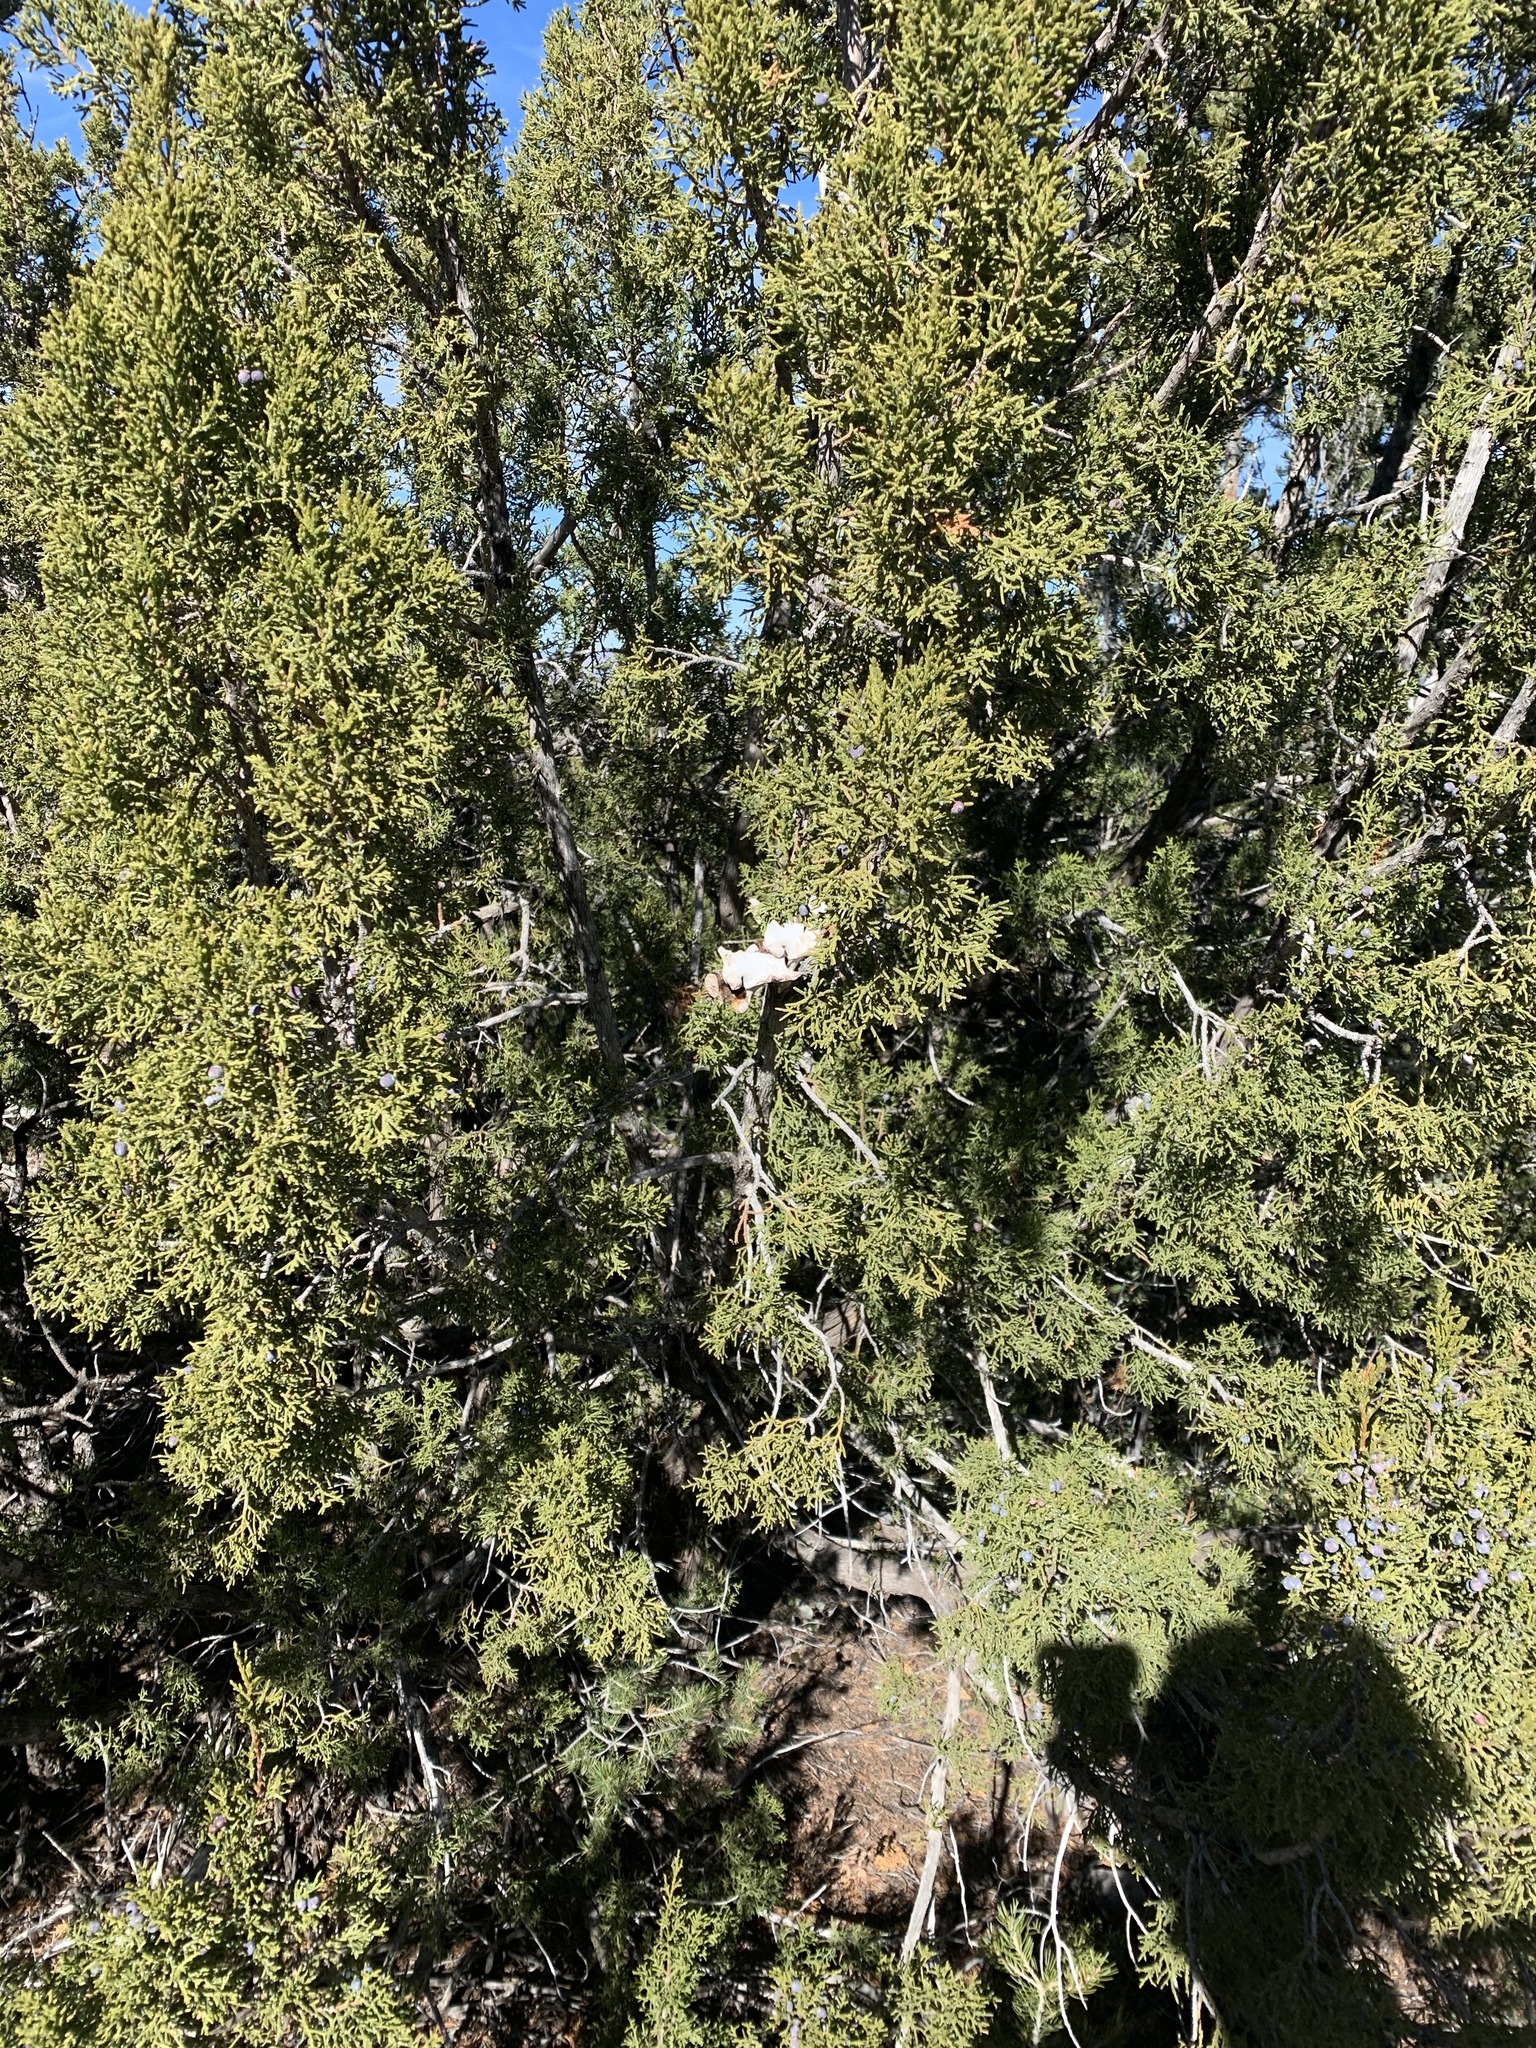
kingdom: Plantae
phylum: Tracheophyta
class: Pinopsida
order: Pinales
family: Cupressaceae
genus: Juniperus
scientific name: Juniperus monosperma
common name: One-seed juniper
